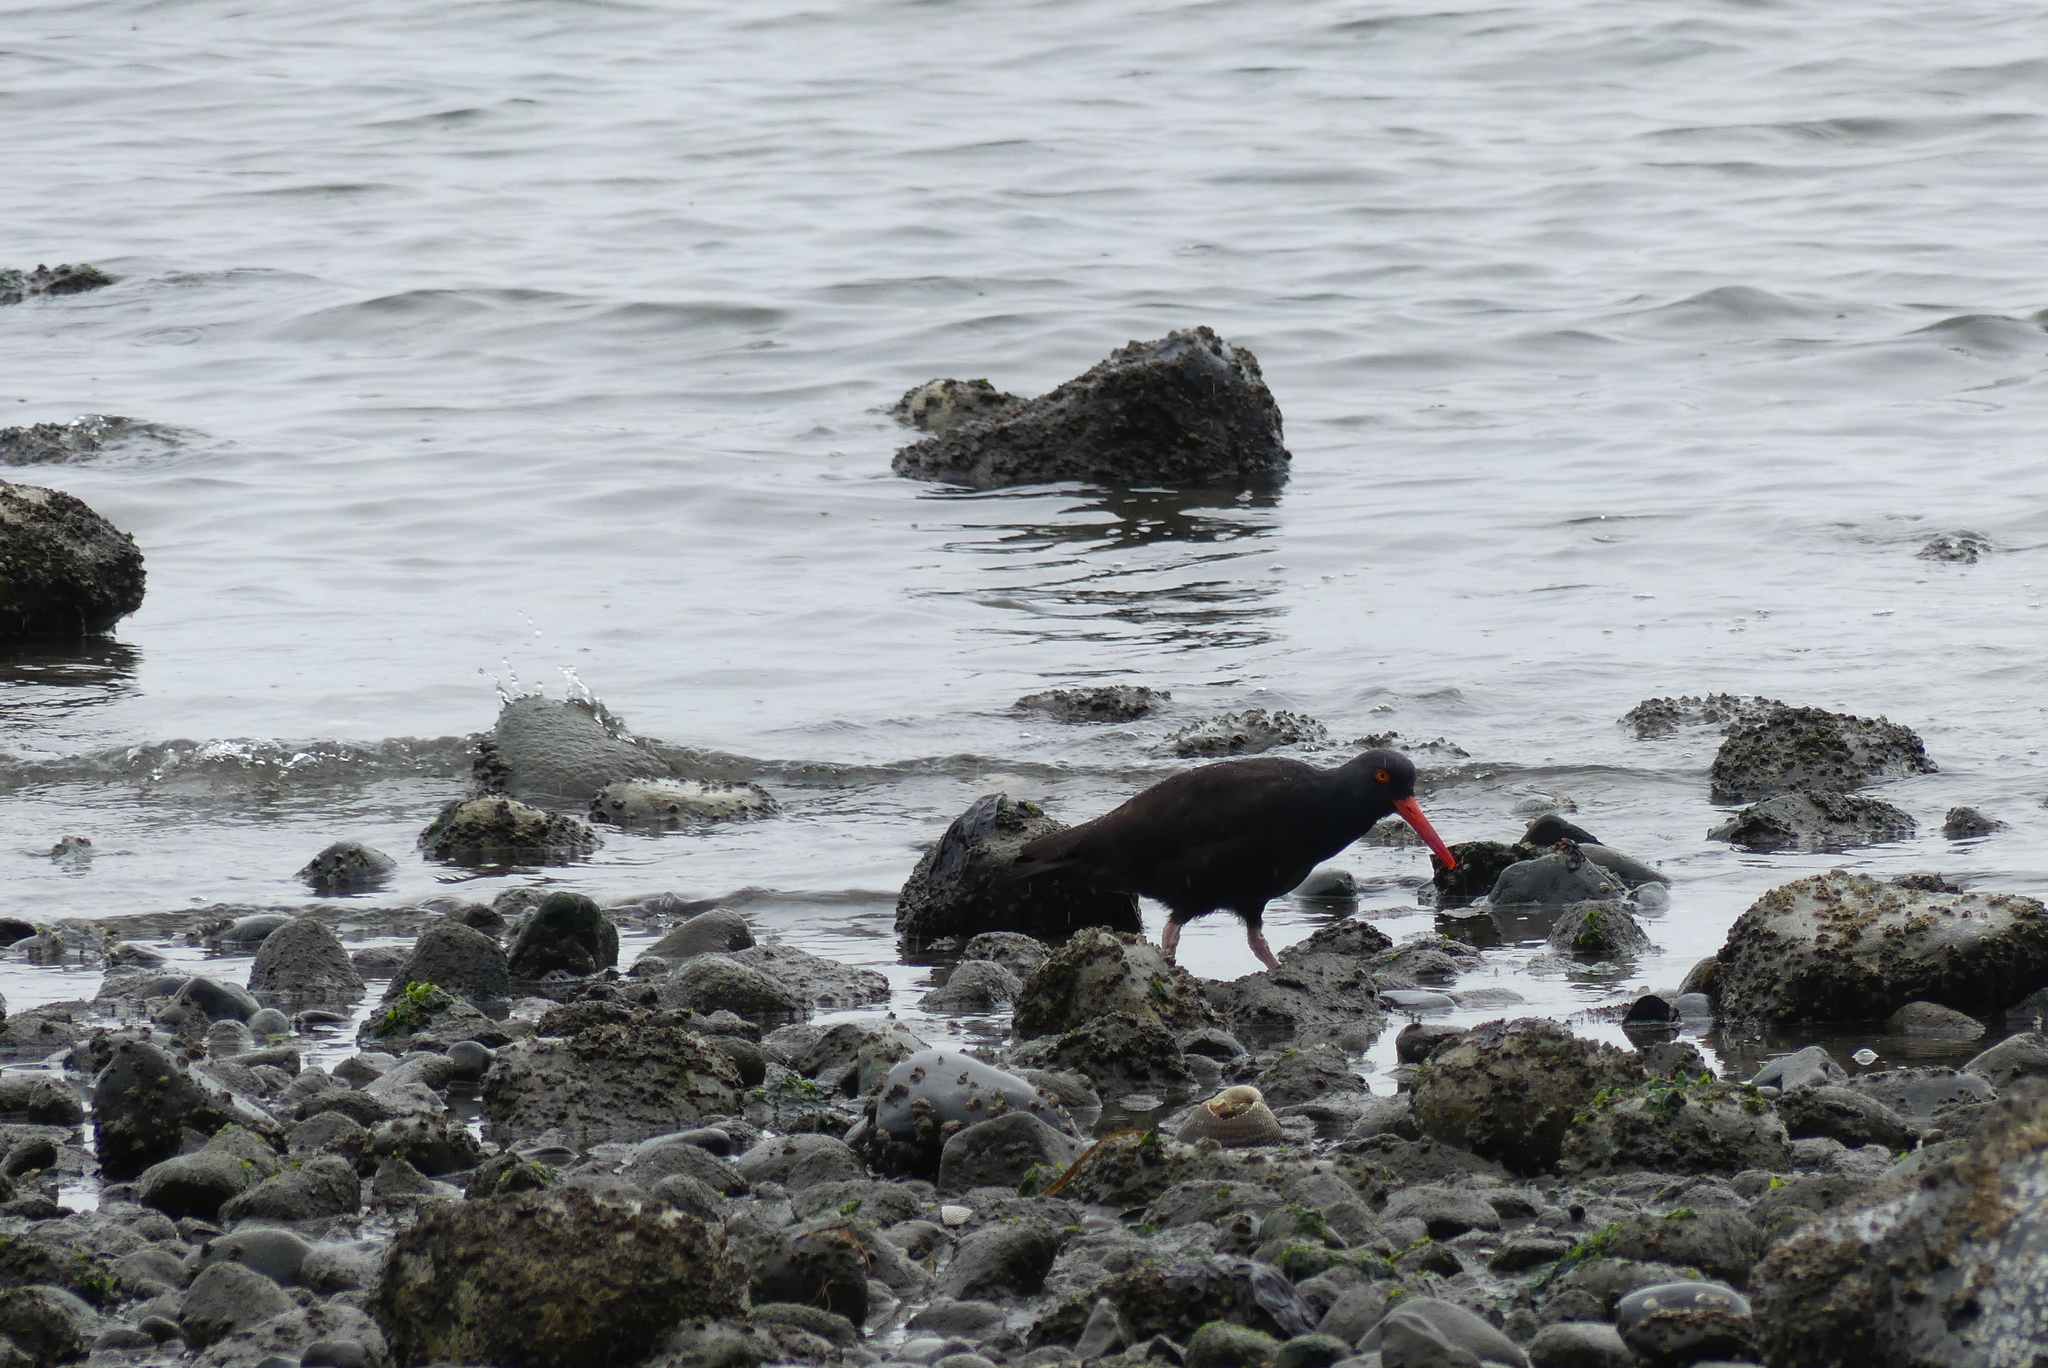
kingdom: Animalia
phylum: Chordata
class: Aves
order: Charadriiformes
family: Haematopodidae
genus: Haematopus
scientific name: Haematopus bachmani
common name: Black oystercatcher
